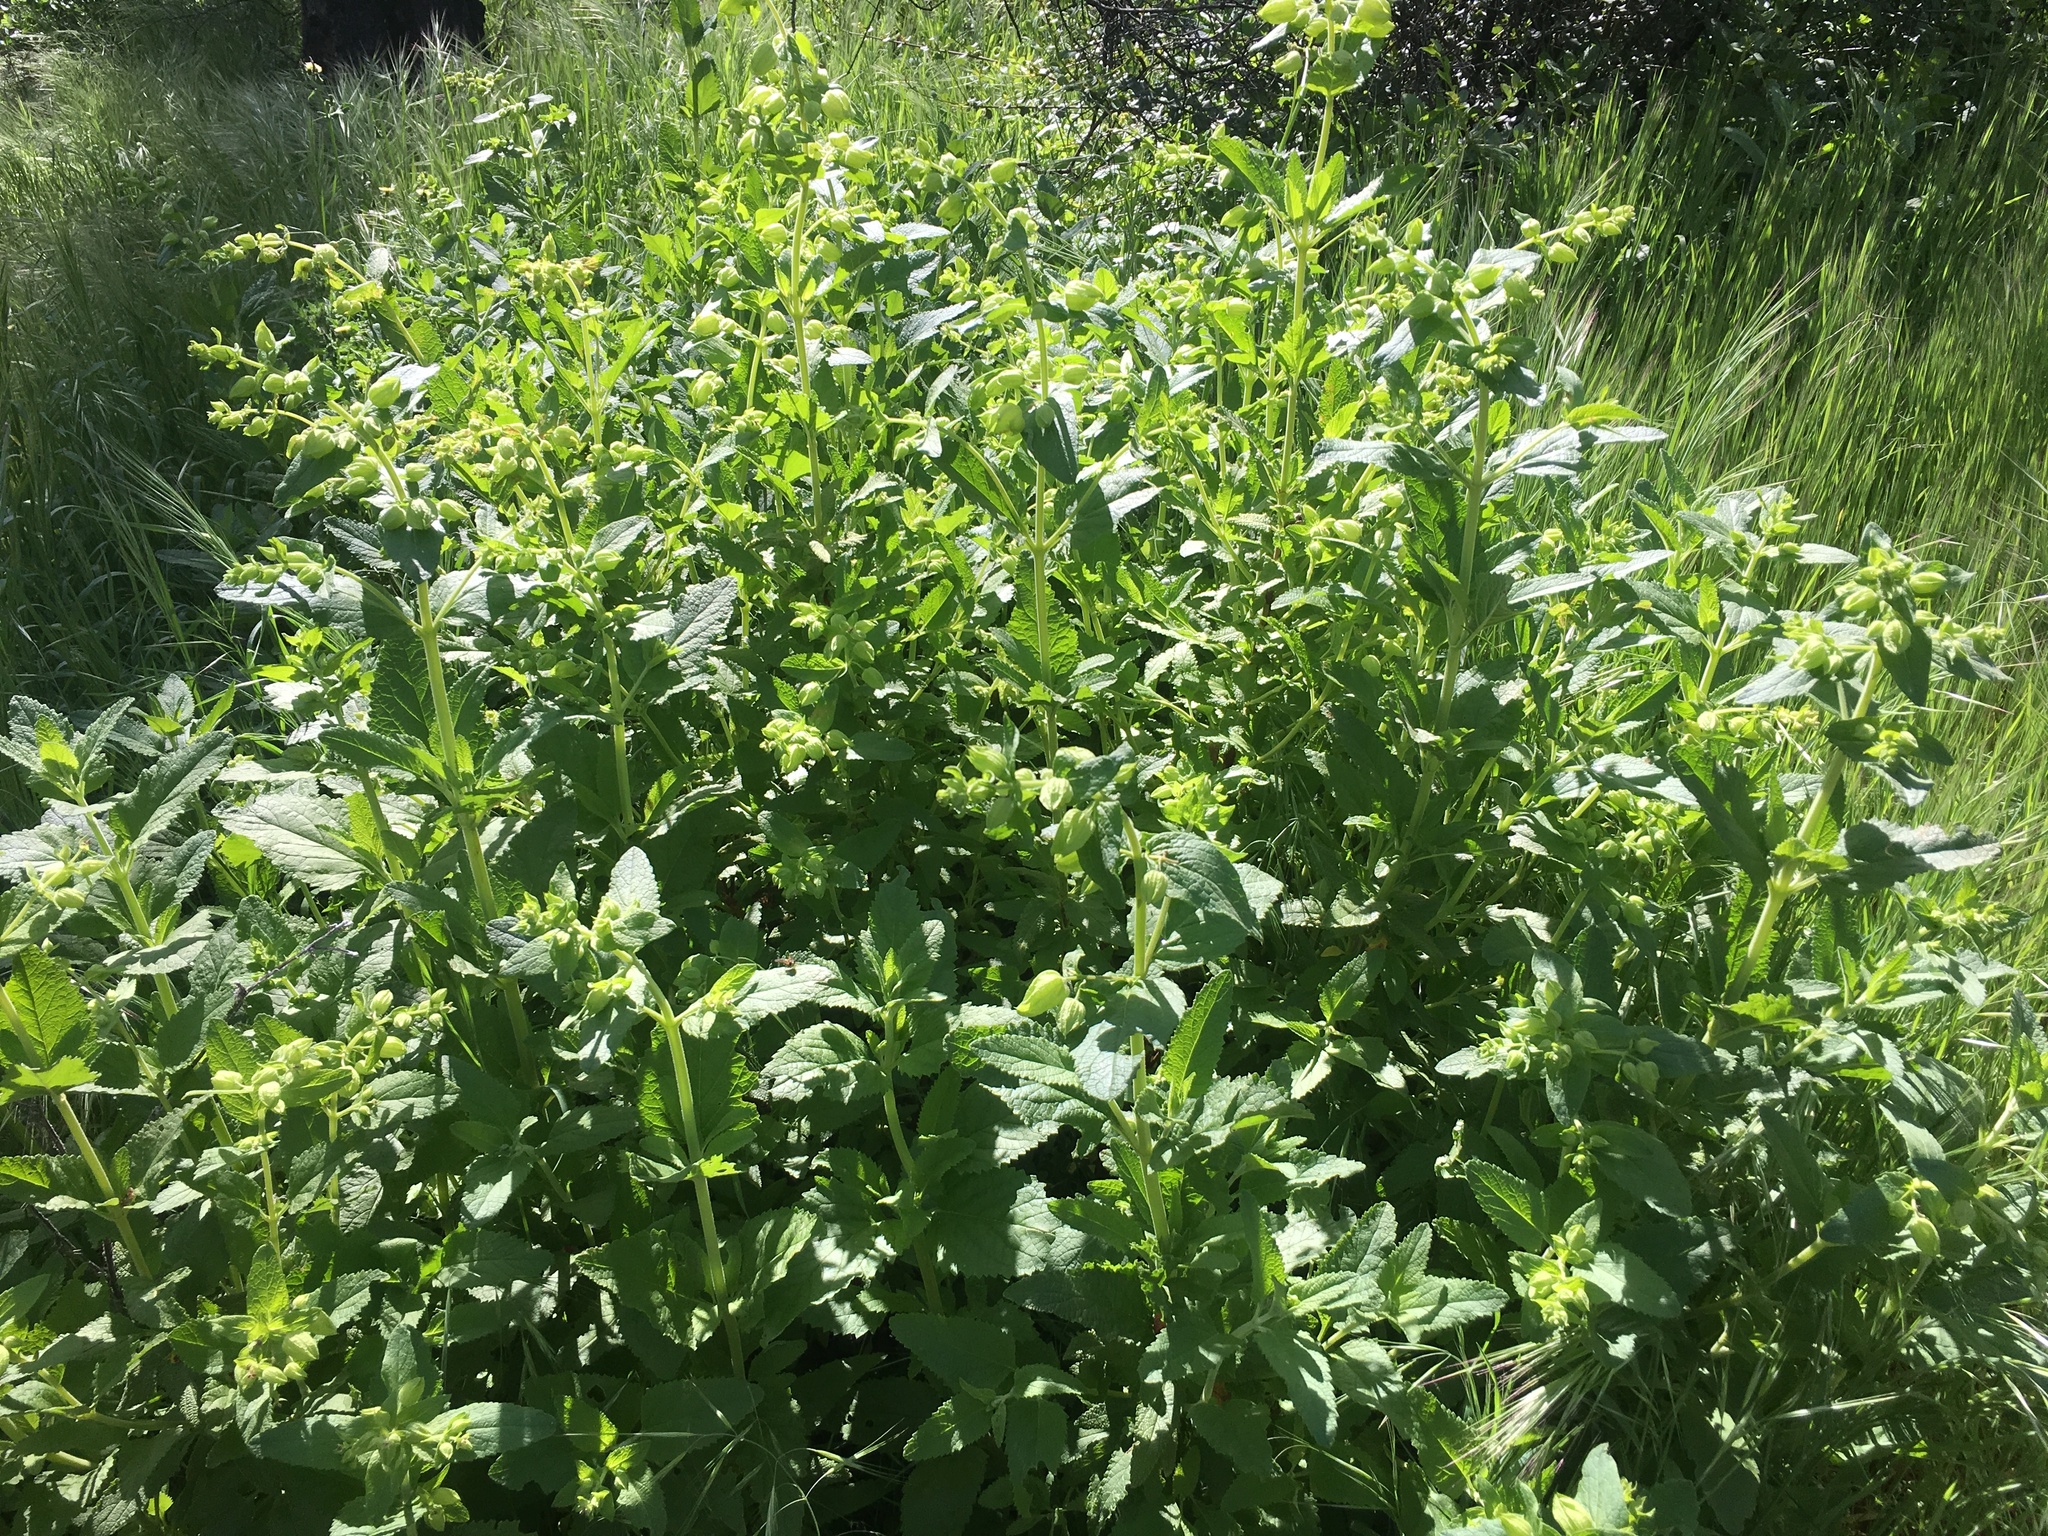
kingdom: Plantae
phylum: Tracheophyta
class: Magnoliopsida
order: Lamiales
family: Lamiaceae
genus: Lepechinia
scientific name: Lepechinia fragrans
